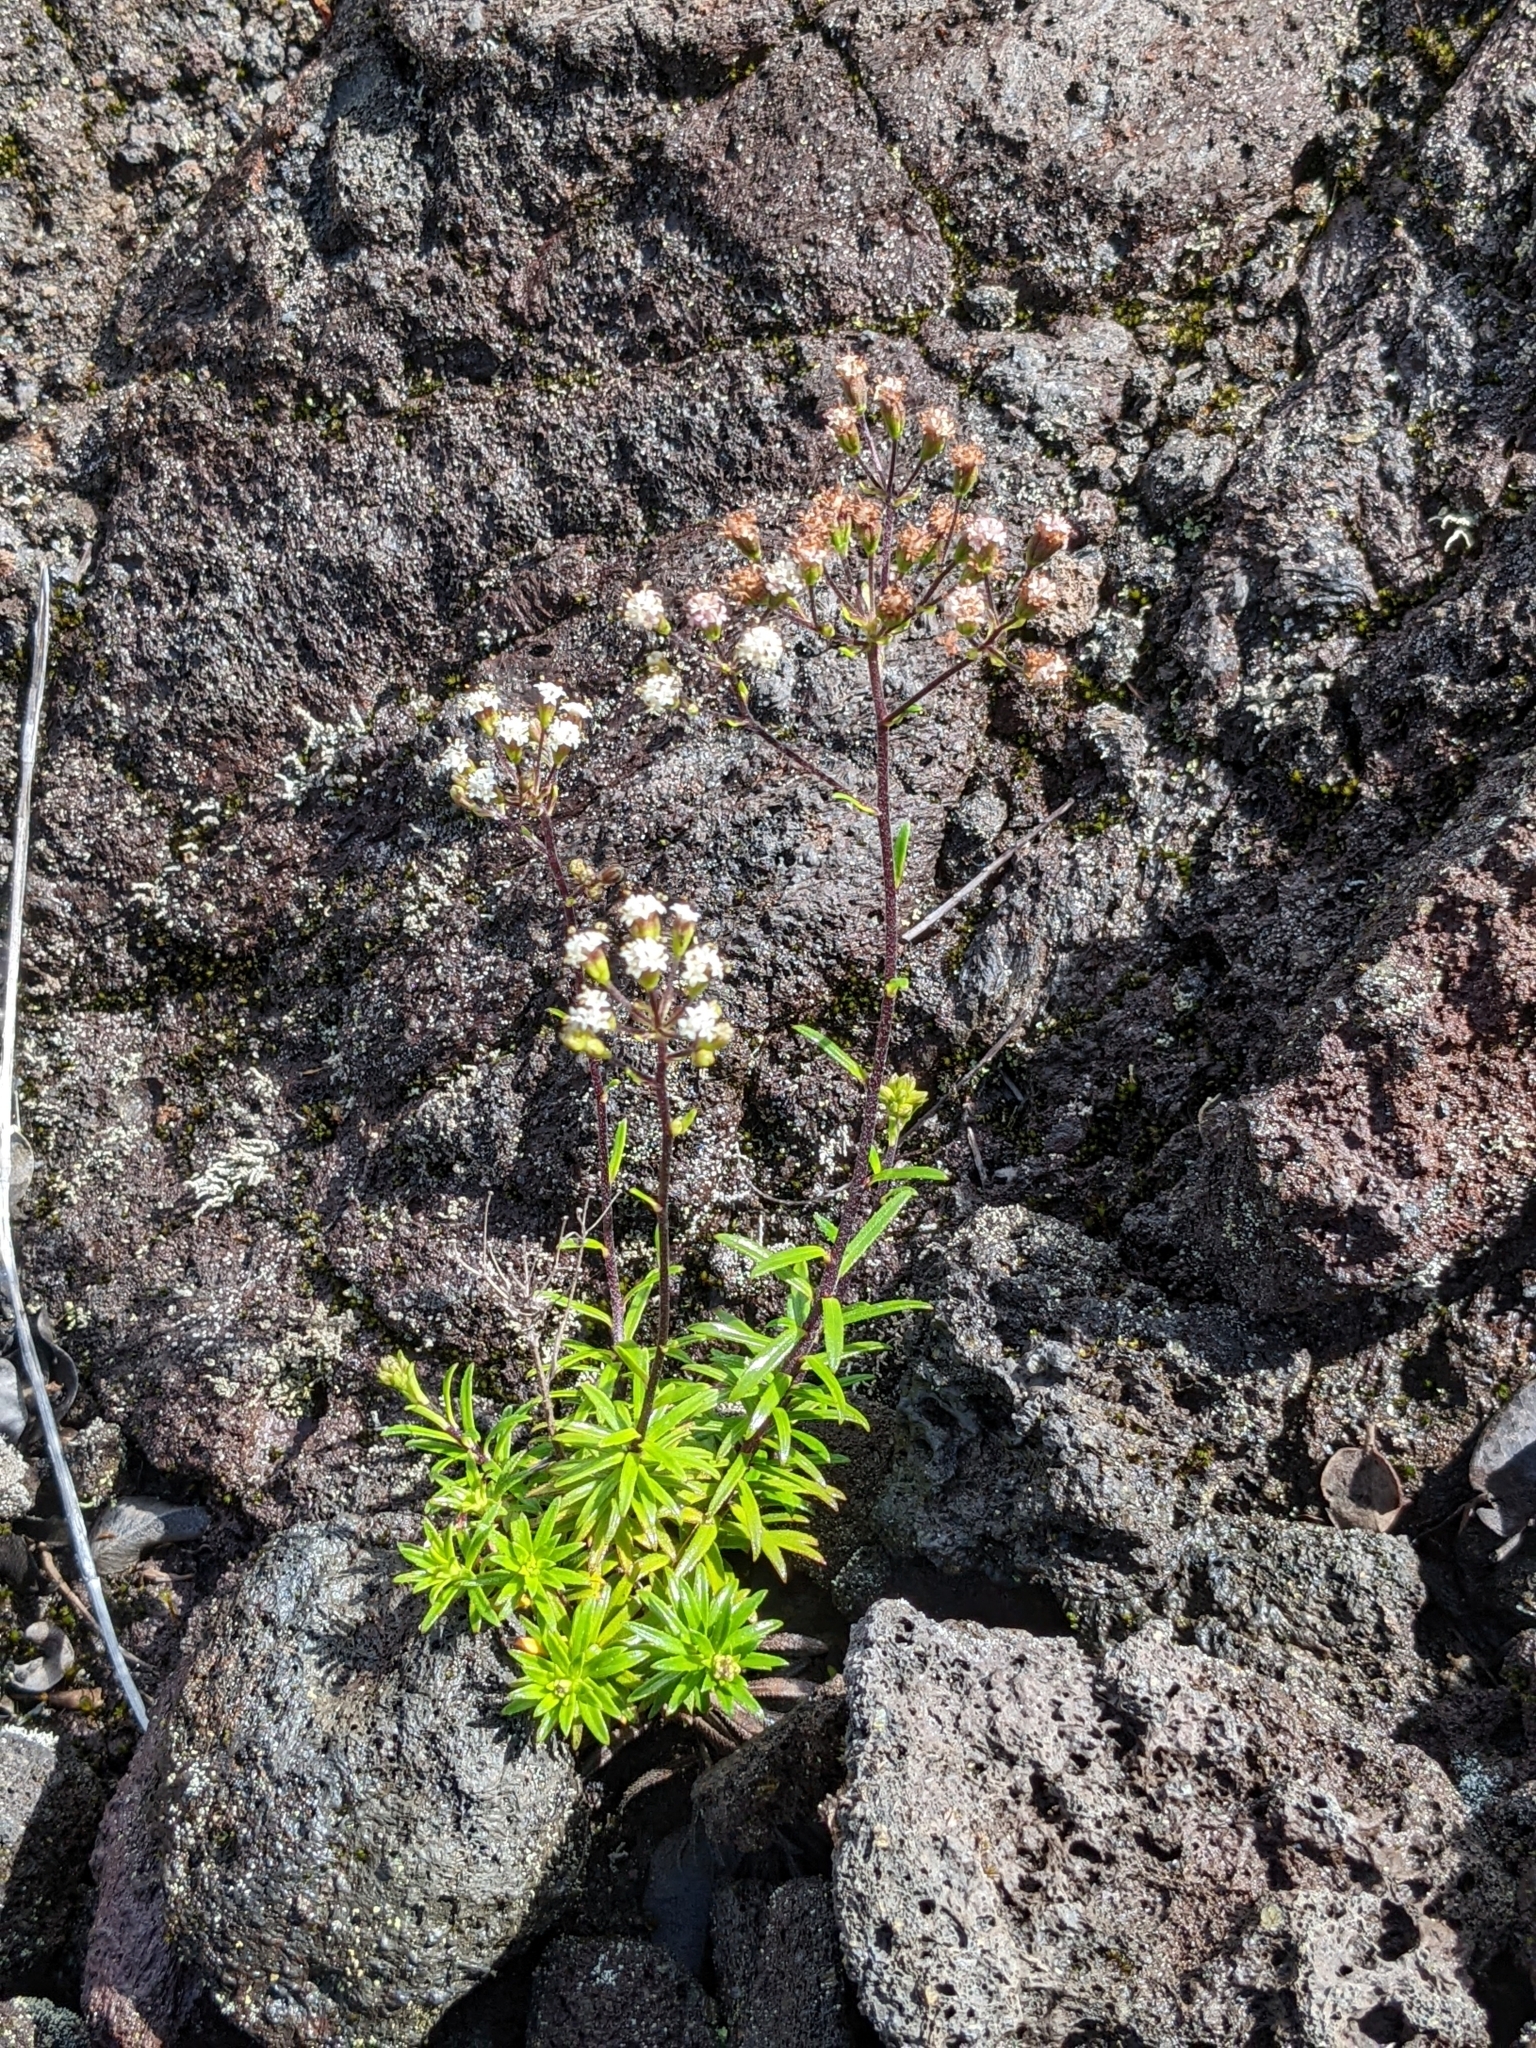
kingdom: Plantae
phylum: Tracheophyta
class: Magnoliopsida
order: Asterales
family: Asteraceae
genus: Dubautia
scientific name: Dubautia scabra
